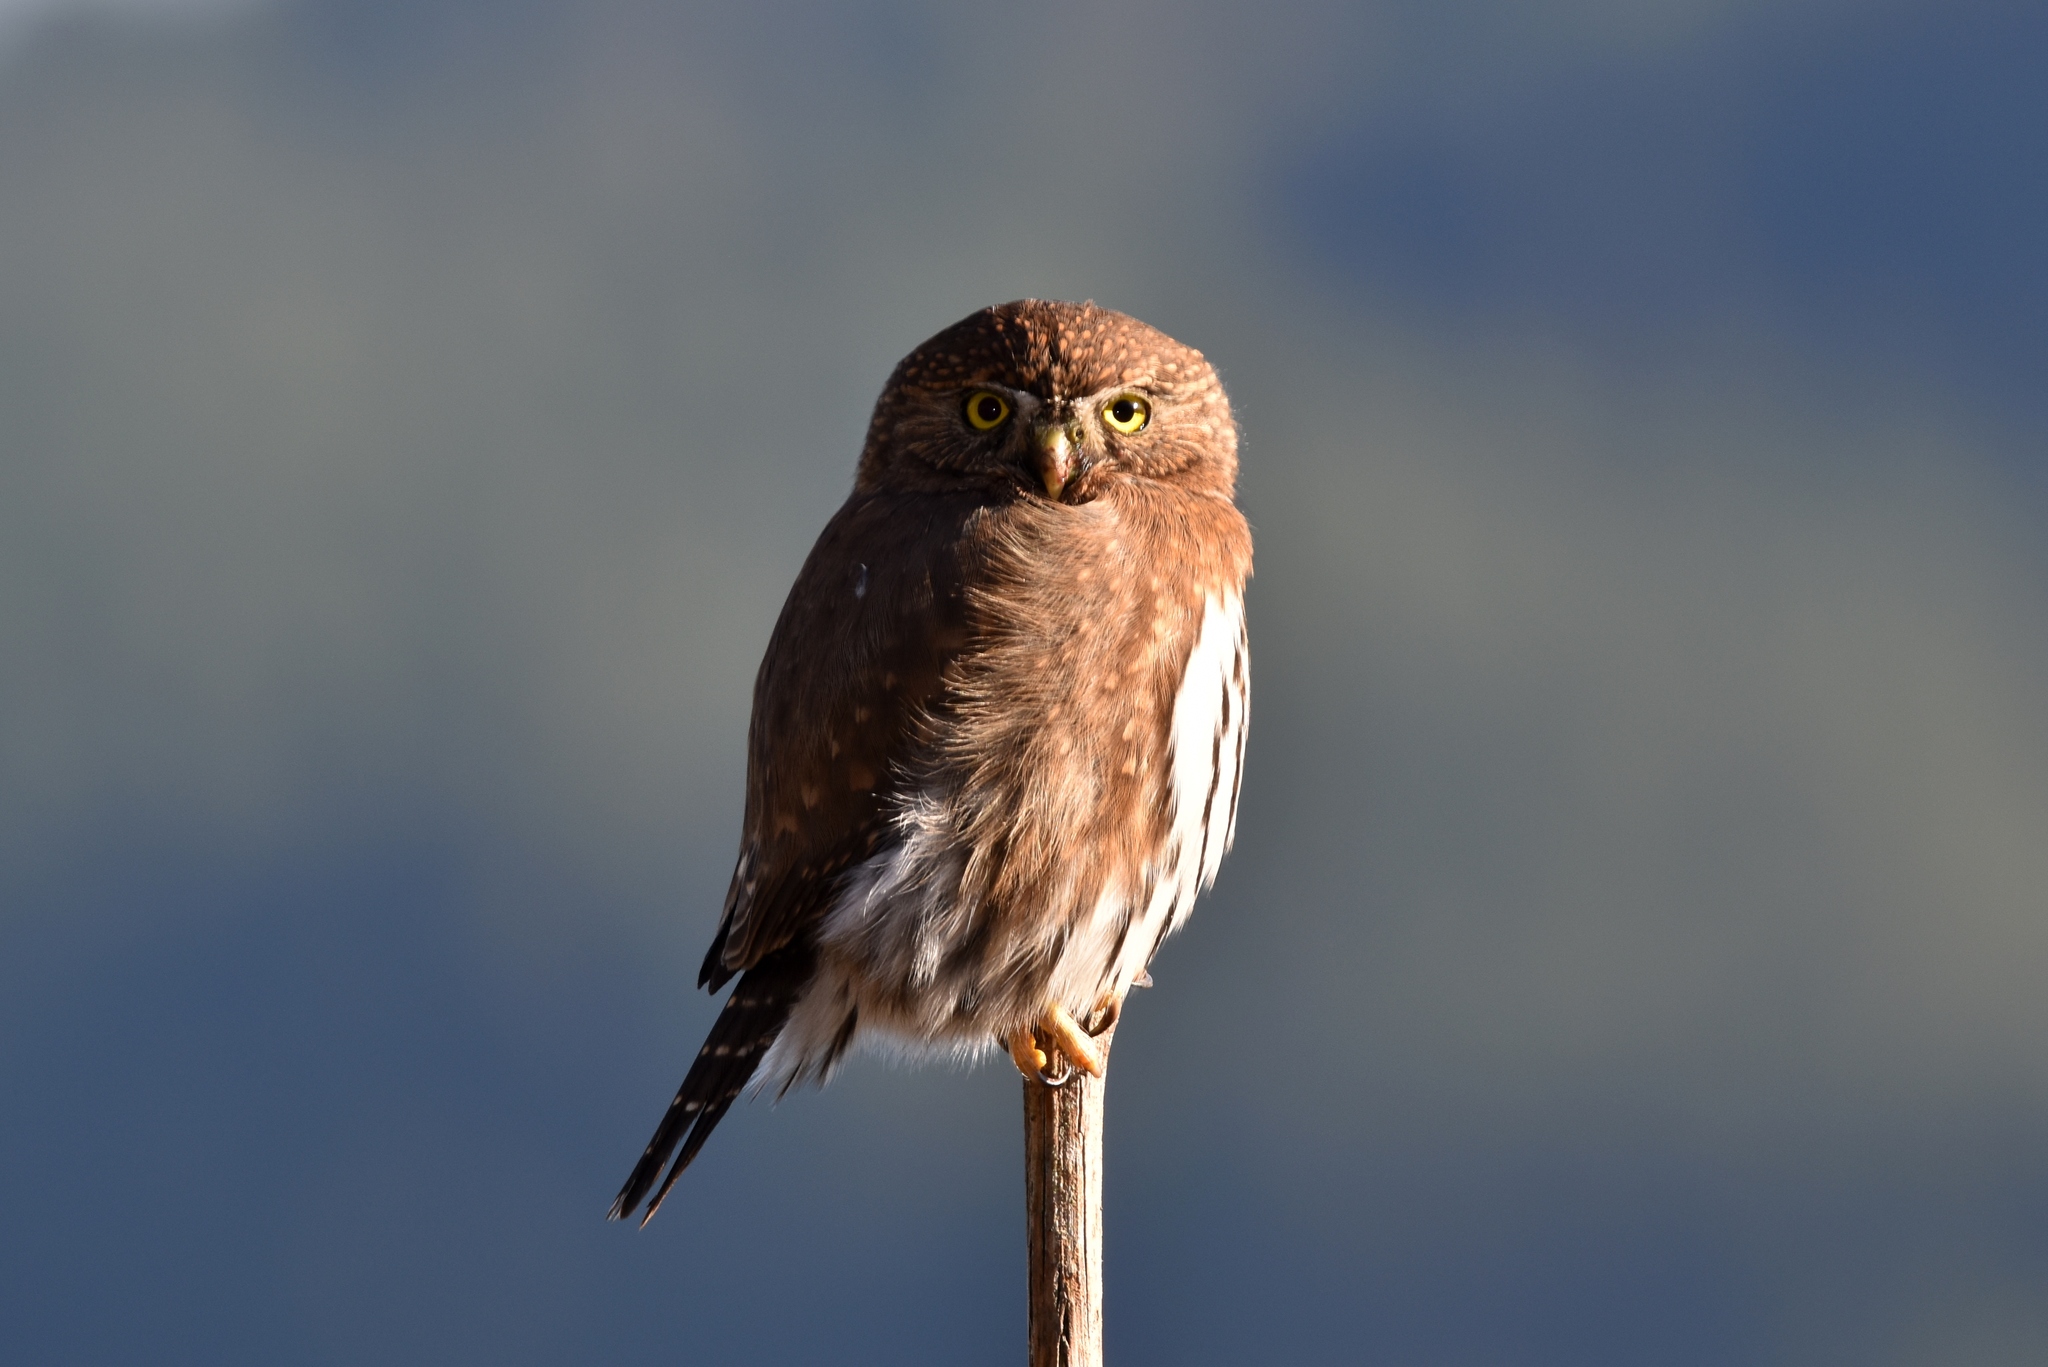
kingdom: Animalia
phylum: Chordata
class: Aves
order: Strigiformes
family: Strigidae
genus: Glaucidium
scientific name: Glaucidium californicum
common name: Northern pygmy owl
